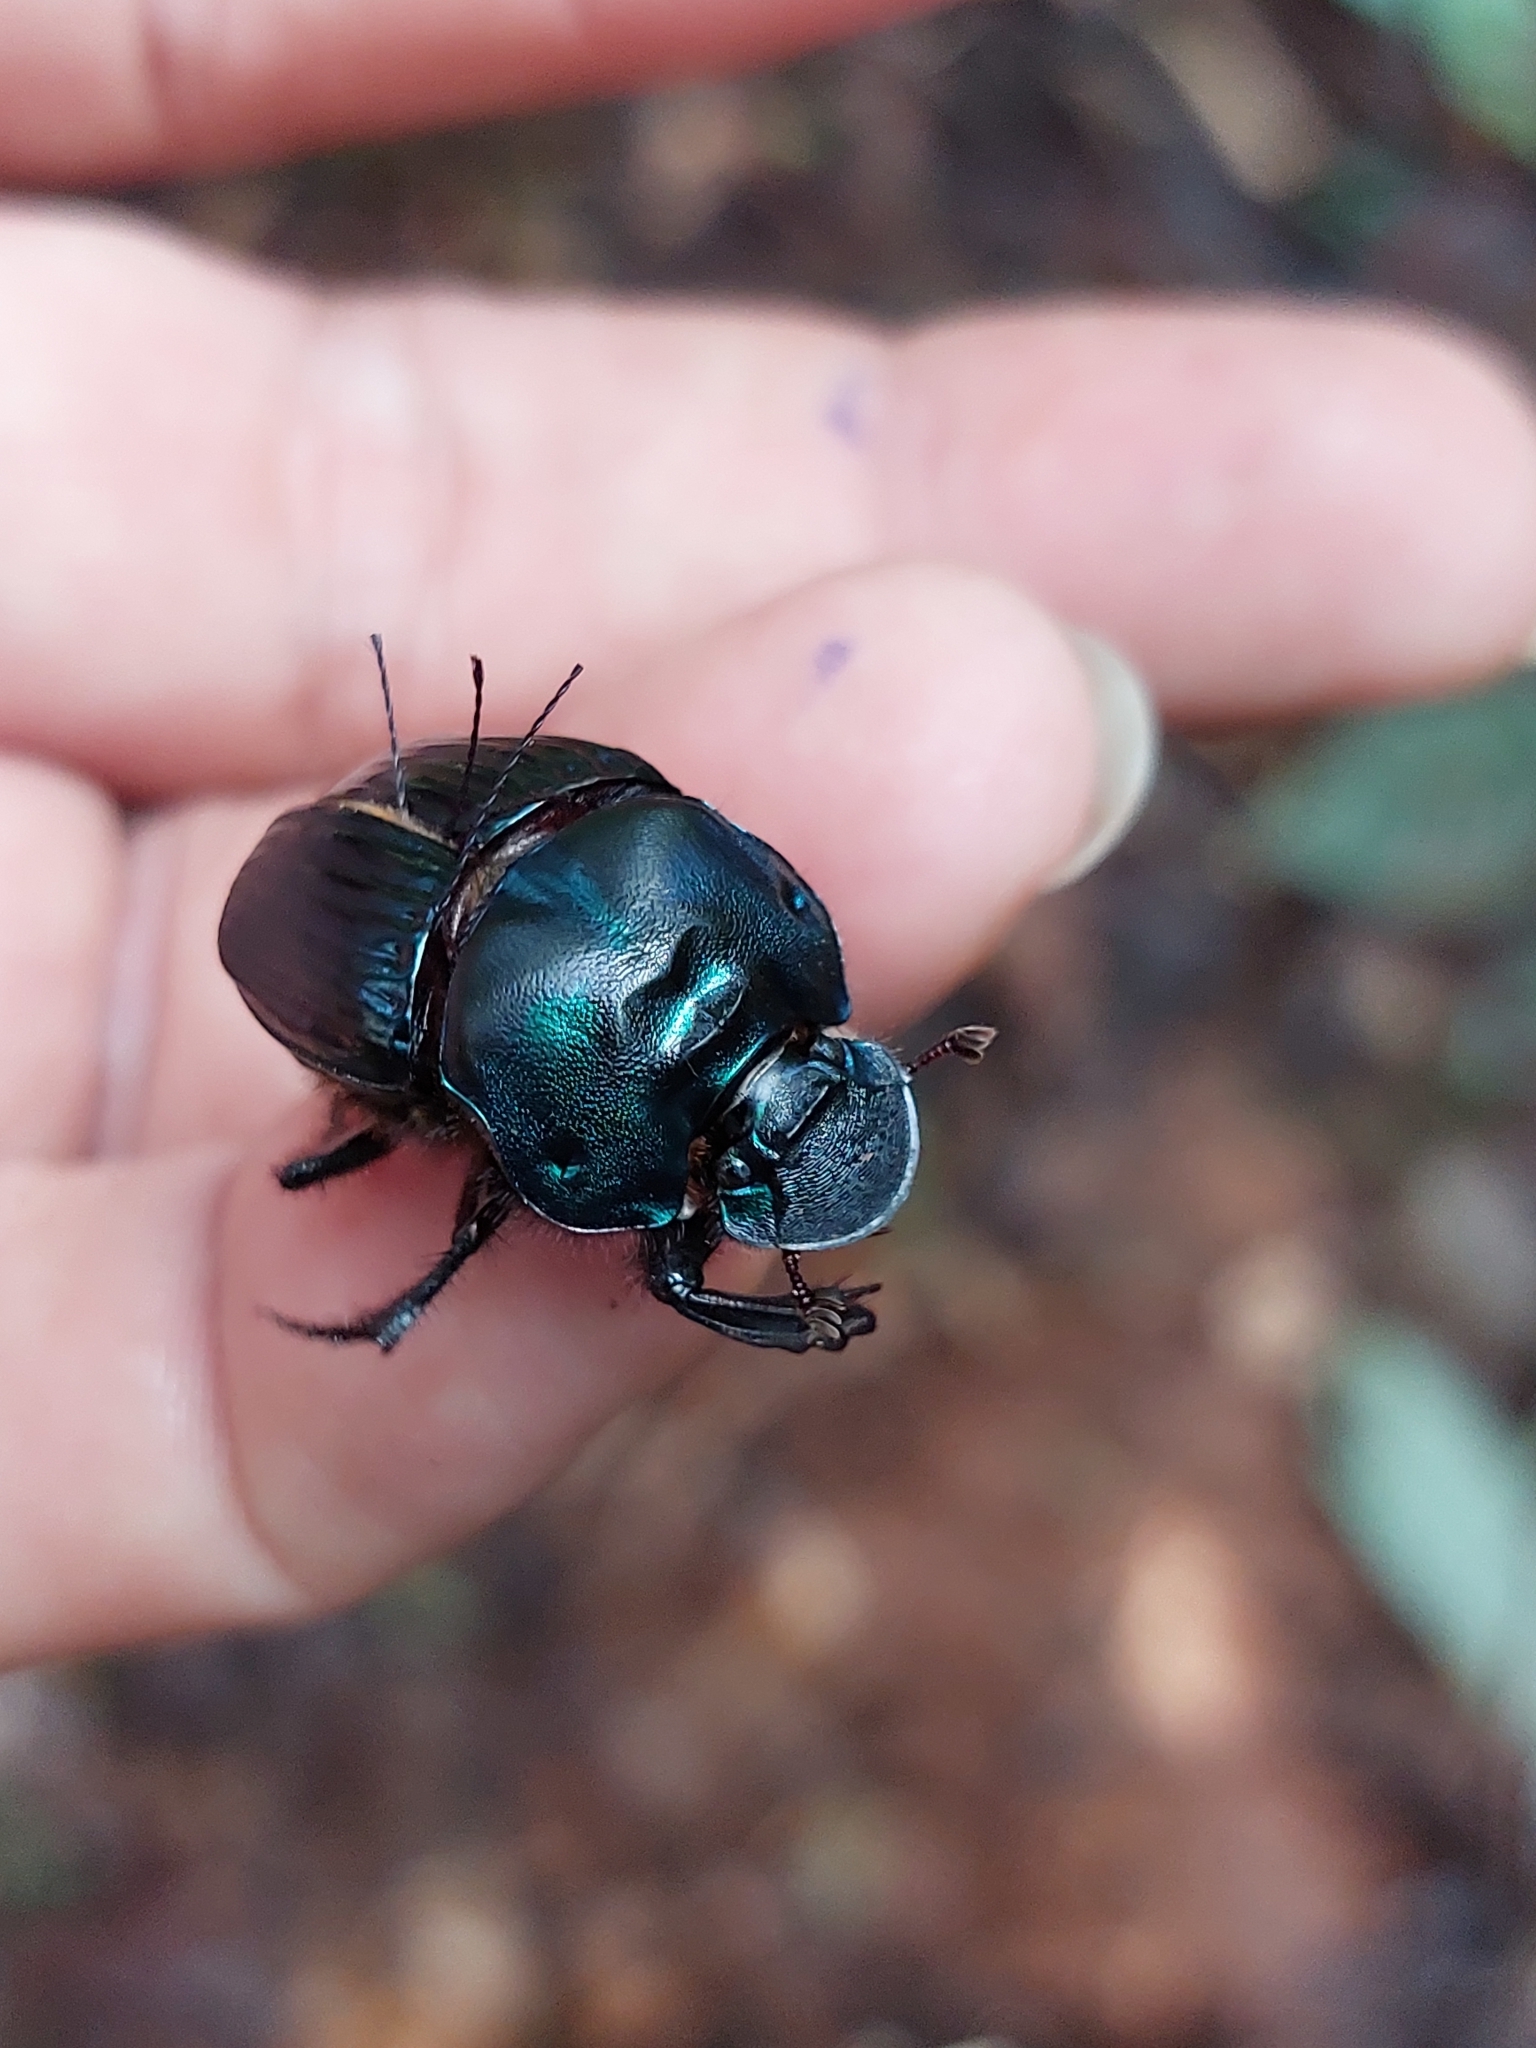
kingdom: Animalia
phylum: Arthropoda
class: Insecta
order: Coleoptera
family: Scarabaeidae
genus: Phanaeus
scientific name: Phanaeus howdeni
